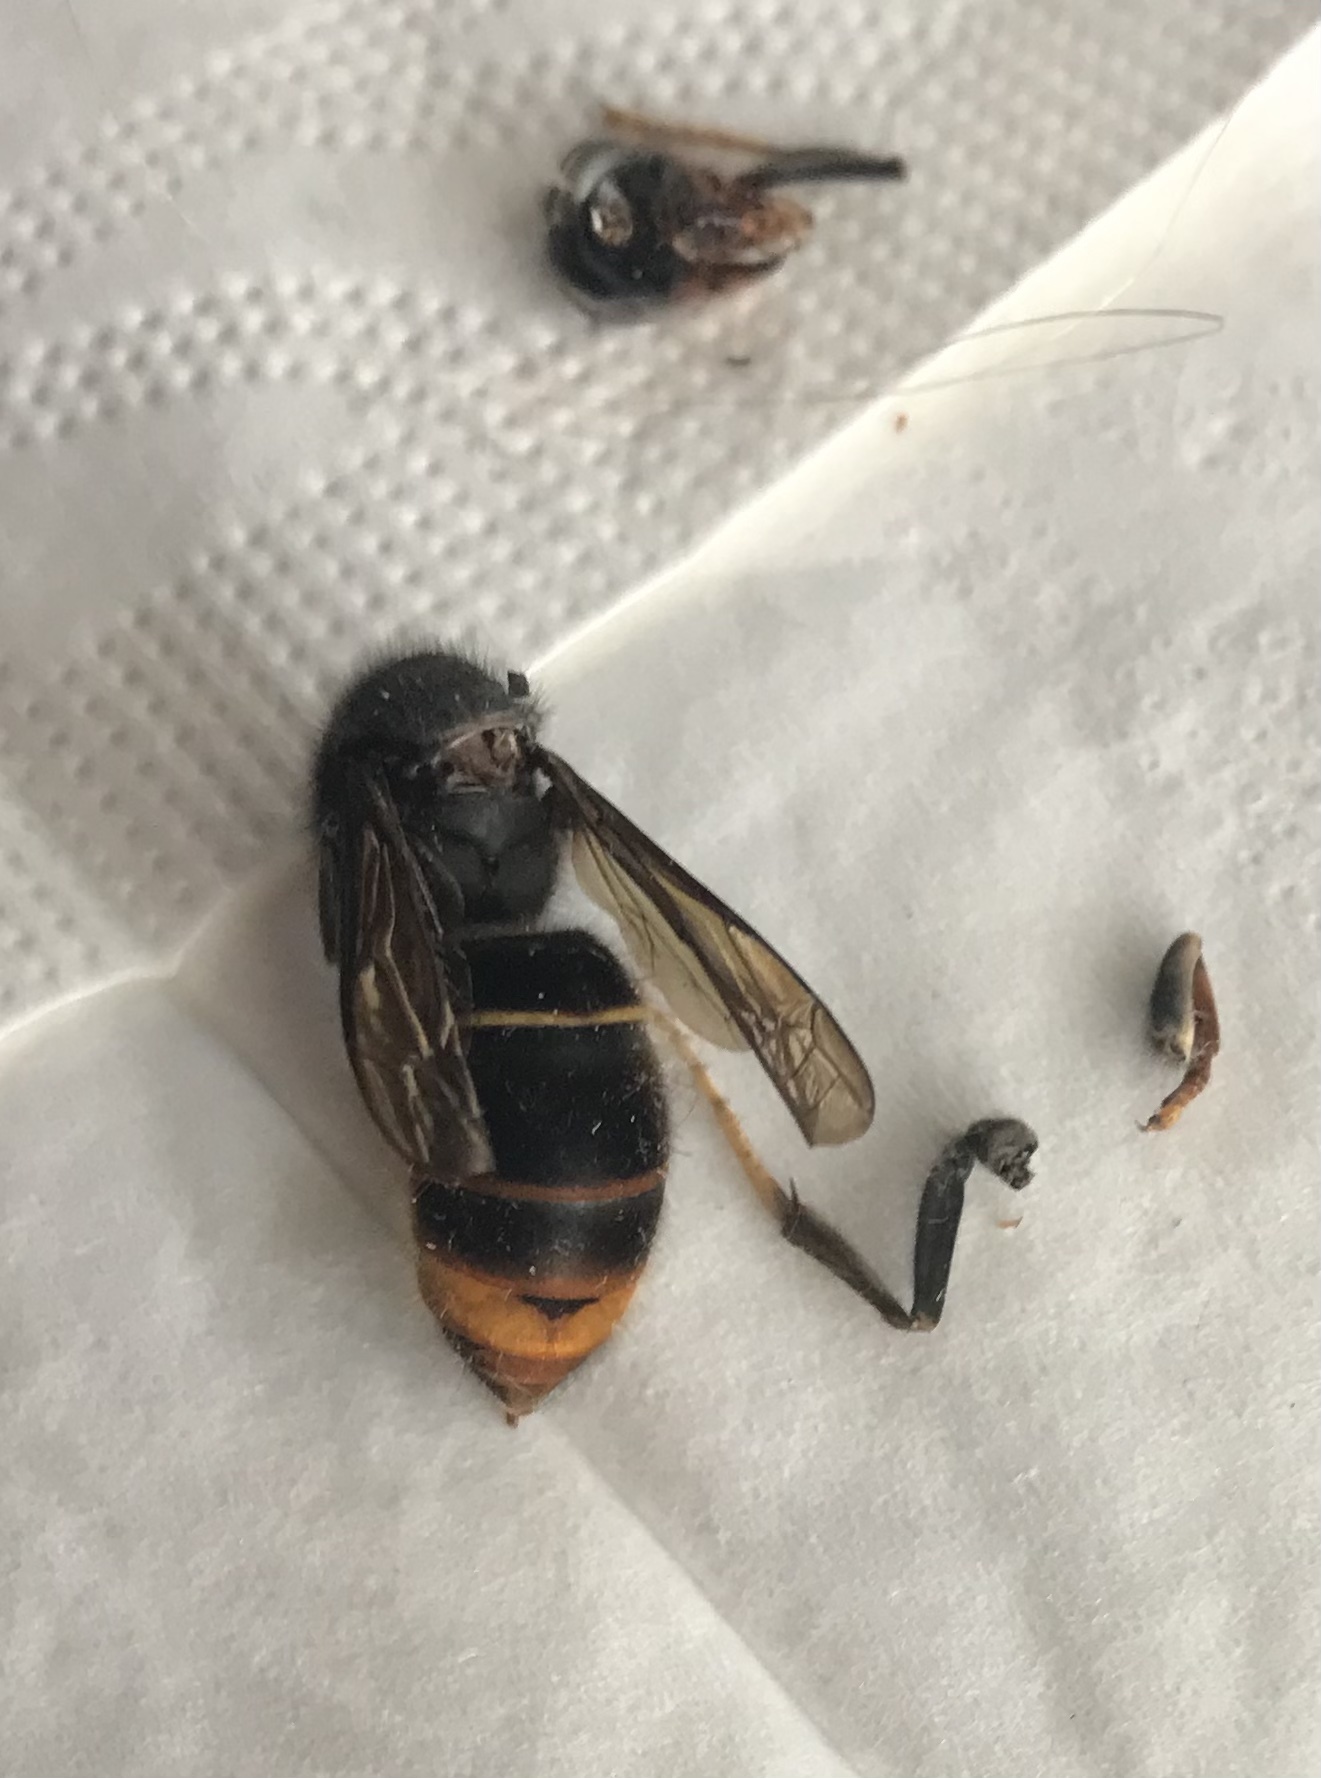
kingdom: Animalia
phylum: Arthropoda
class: Insecta
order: Hymenoptera
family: Vespidae
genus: Vespa
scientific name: Vespa velutina
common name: Asian hornet
